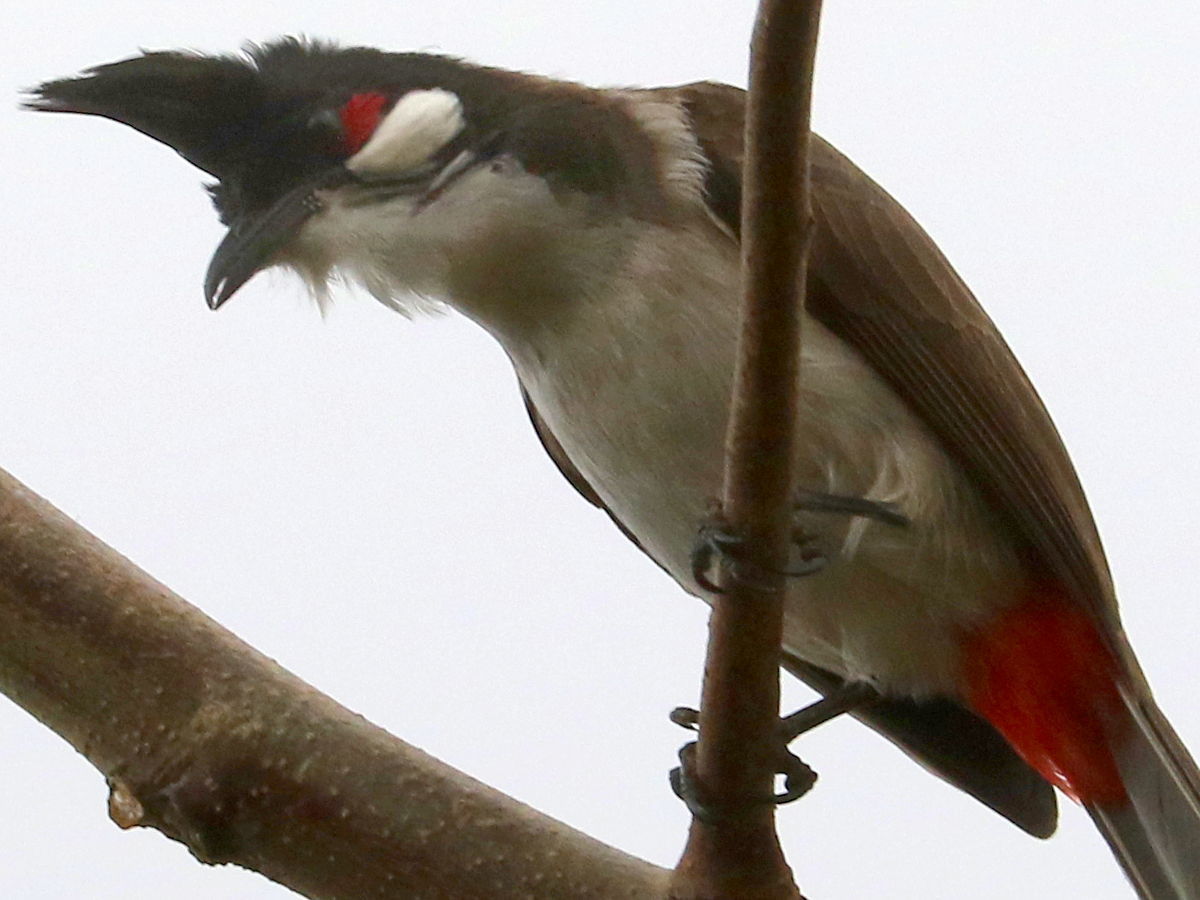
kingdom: Animalia
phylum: Chordata
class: Aves
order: Passeriformes
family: Pycnonotidae
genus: Pycnonotus
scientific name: Pycnonotus jocosus
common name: Red-whiskered bulbul
